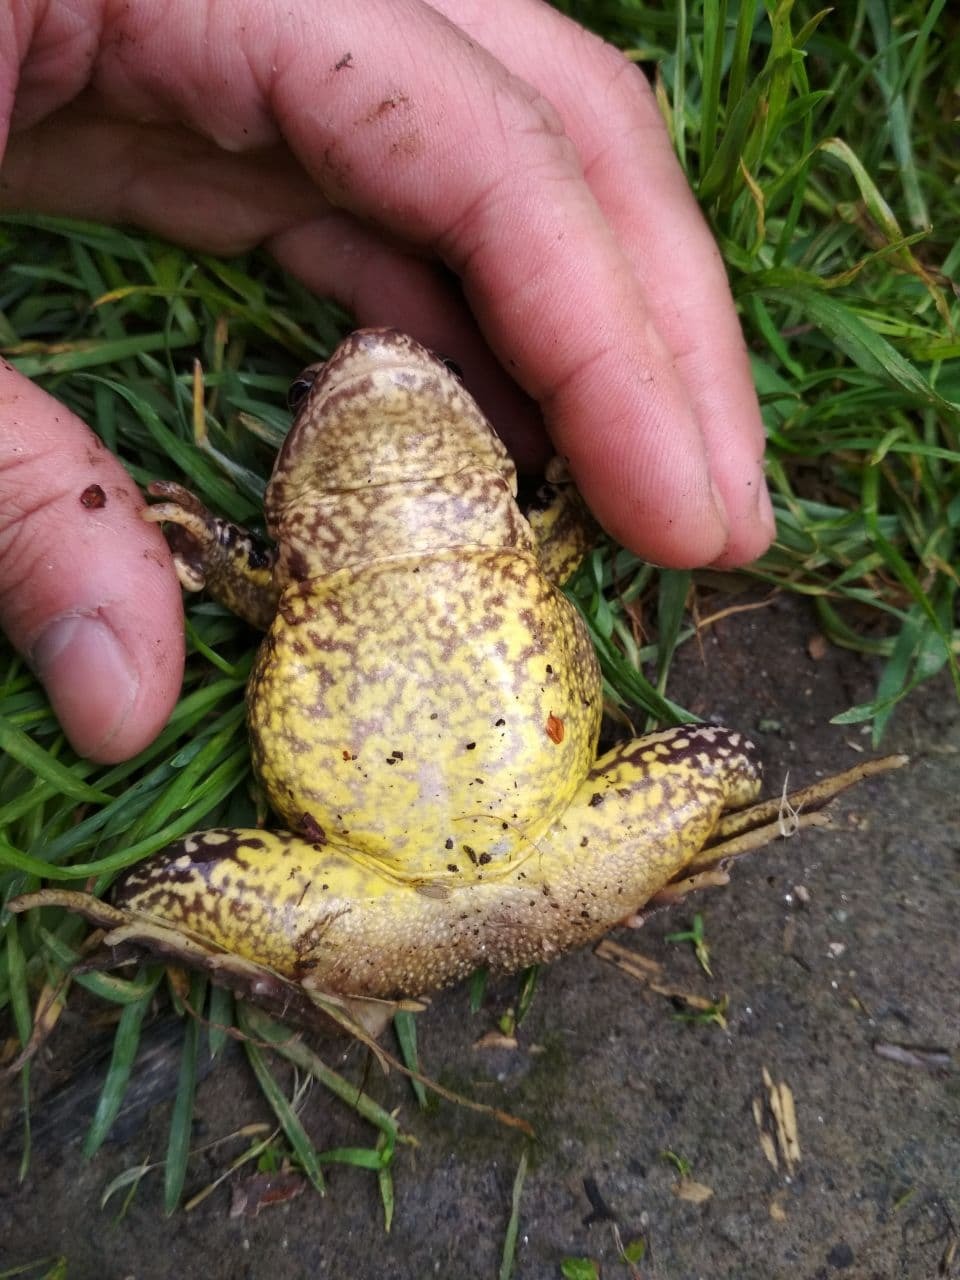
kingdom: Animalia
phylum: Chordata
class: Amphibia
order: Anura
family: Ranidae
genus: Rana
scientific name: Rana temporaria
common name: Common frog
